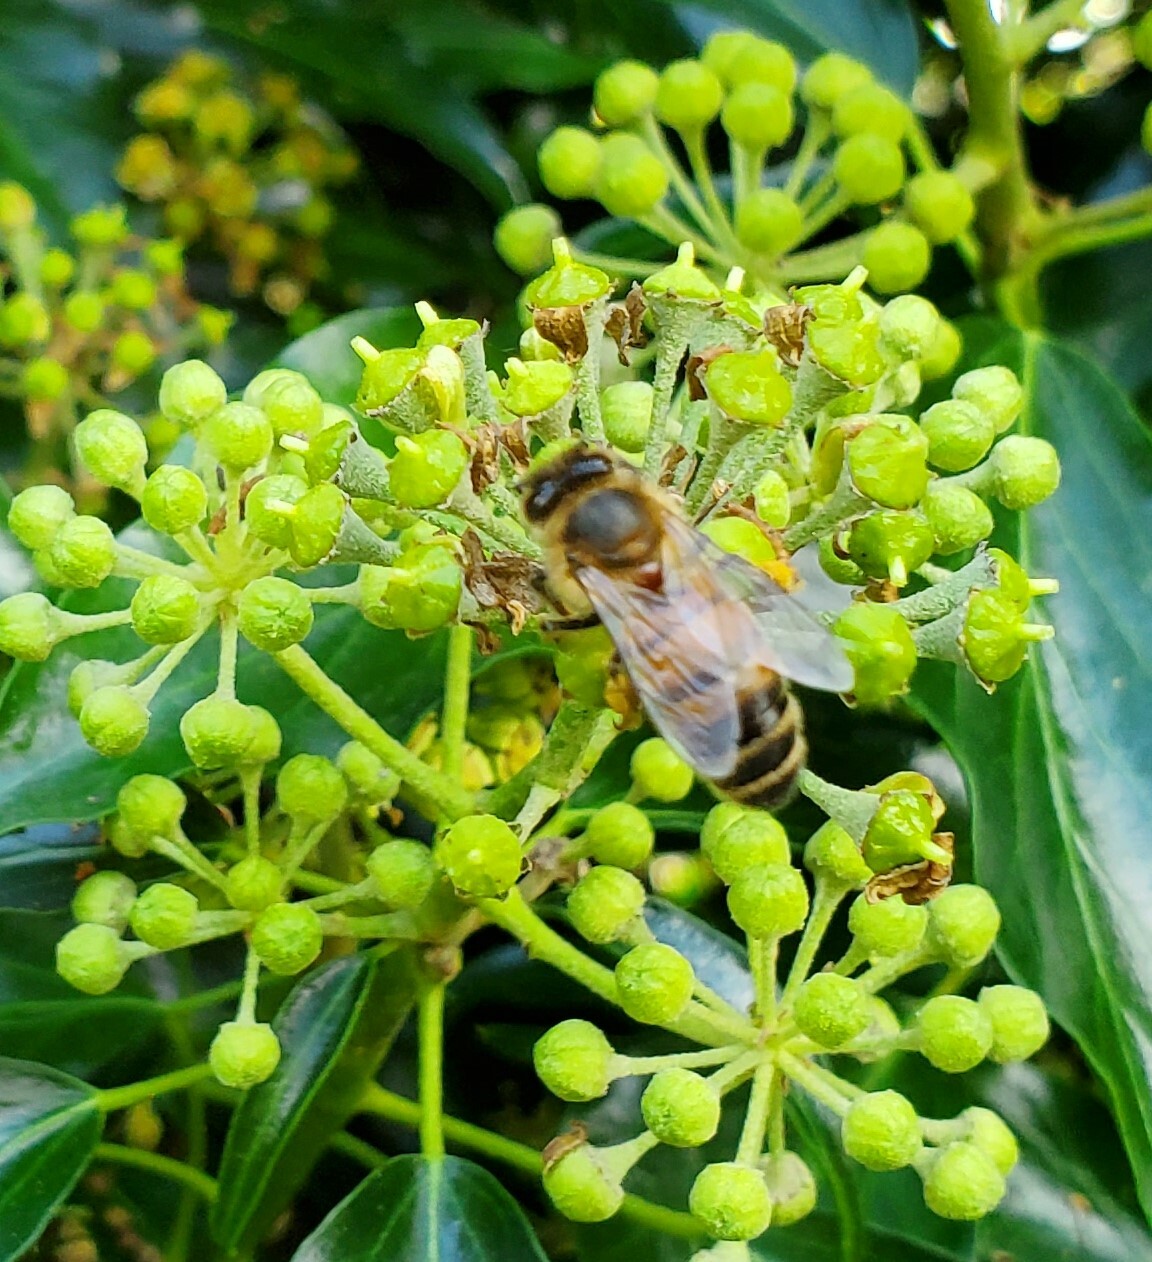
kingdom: Animalia
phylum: Arthropoda
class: Insecta
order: Hymenoptera
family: Apidae
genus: Apis
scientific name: Apis mellifera
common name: Honey bee
